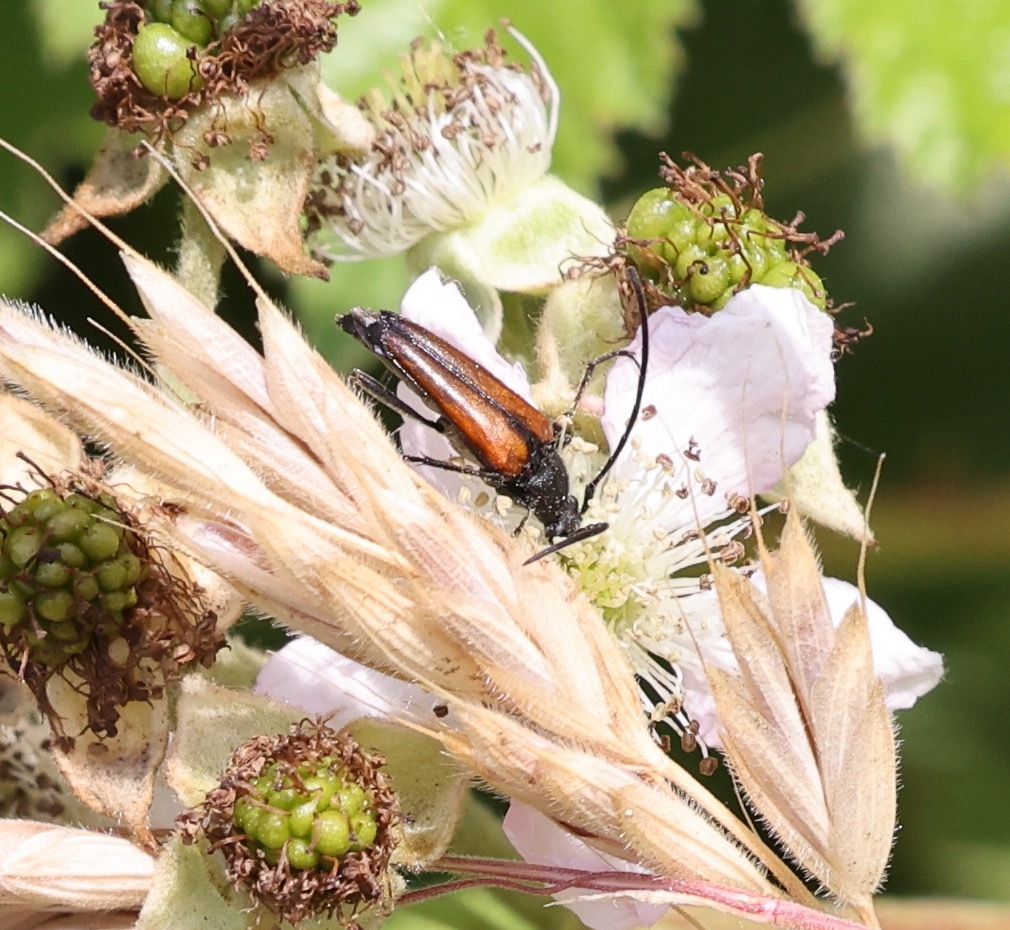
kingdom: Animalia
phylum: Arthropoda
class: Insecta
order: Coleoptera
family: Cerambycidae
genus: Stenurella
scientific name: Stenurella melanura
